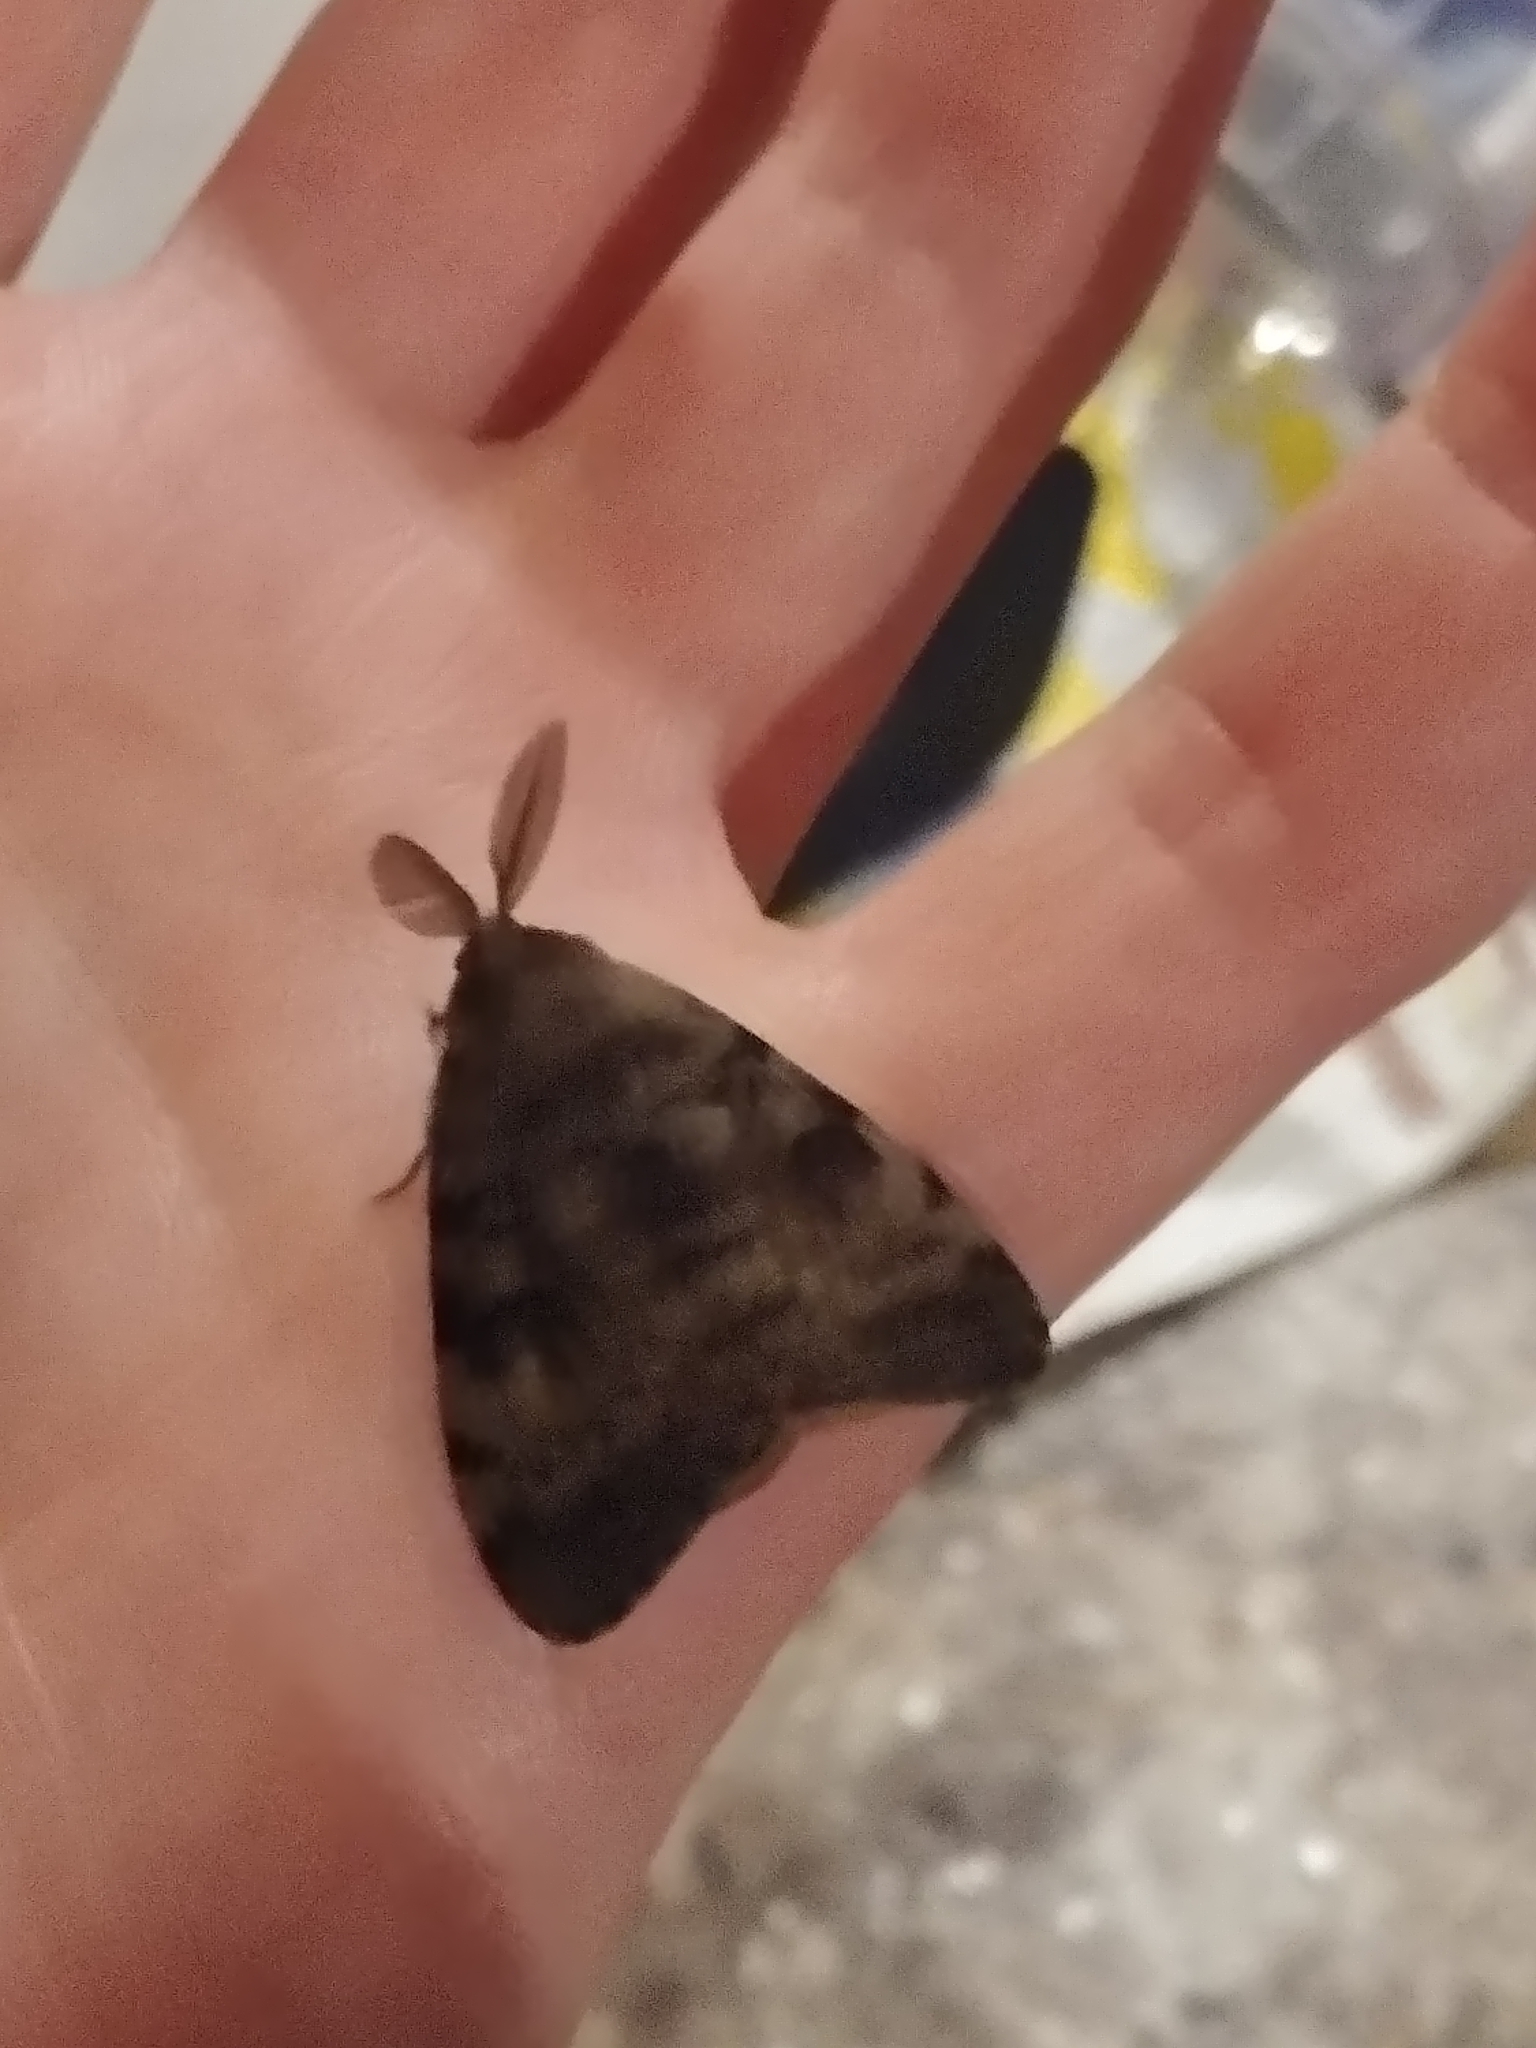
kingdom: Animalia
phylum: Arthropoda
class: Insecta
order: Lepidoptera
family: Erebidae
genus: Lymantria
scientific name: Lymantria dispar
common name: Gypsy moth
